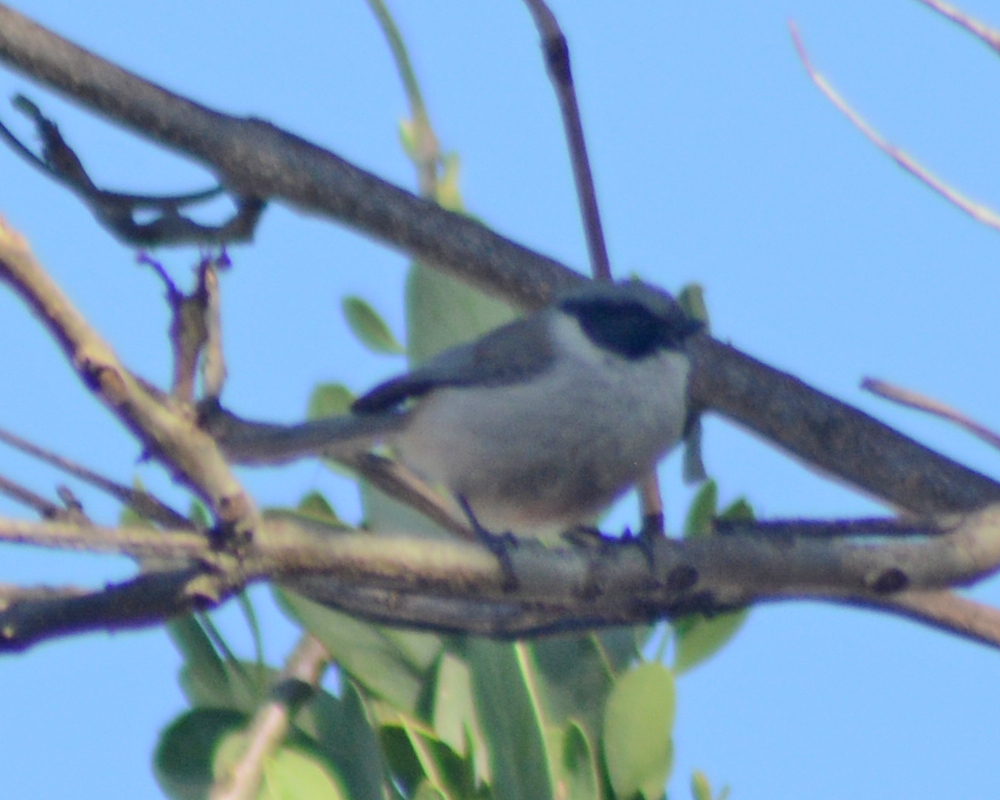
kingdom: Animalia
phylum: Chordata
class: Aves
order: Passeriformes
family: Aegithalidae
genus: Psaltriparus
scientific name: Psaltriparus minimus
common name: American bushtit
